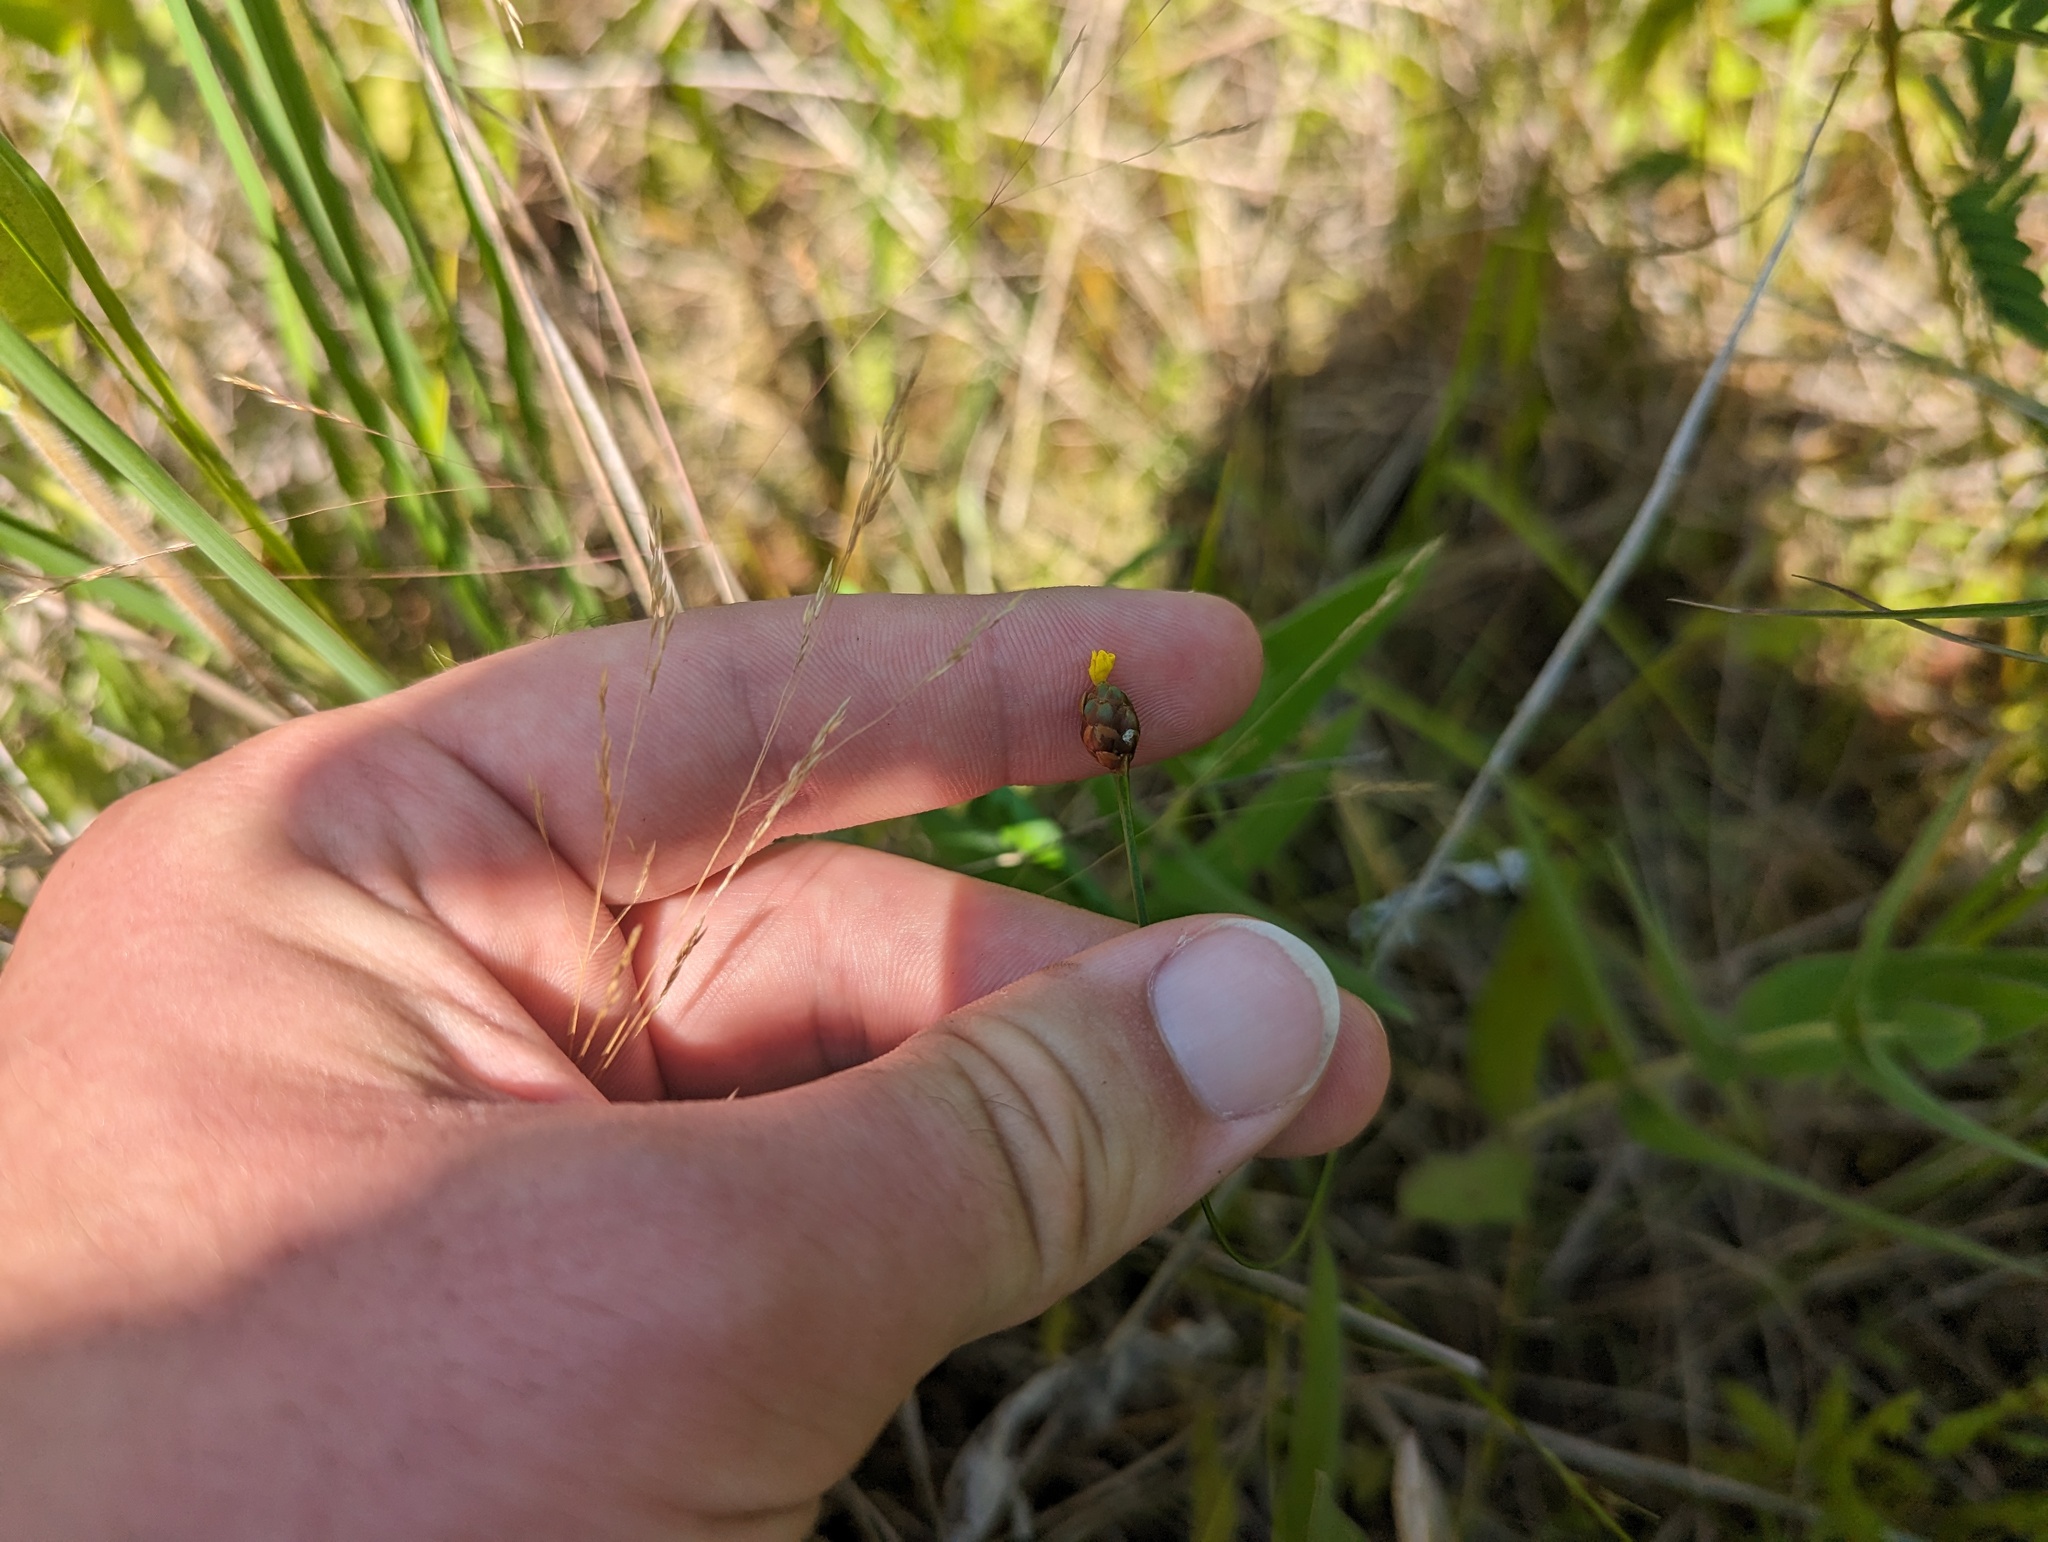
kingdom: Plantae
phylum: Tracheophyta
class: Liliopsida
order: Poales
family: Xyridaceae
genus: Xyris
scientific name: Xyris torta
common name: Common yelloweyed grass
